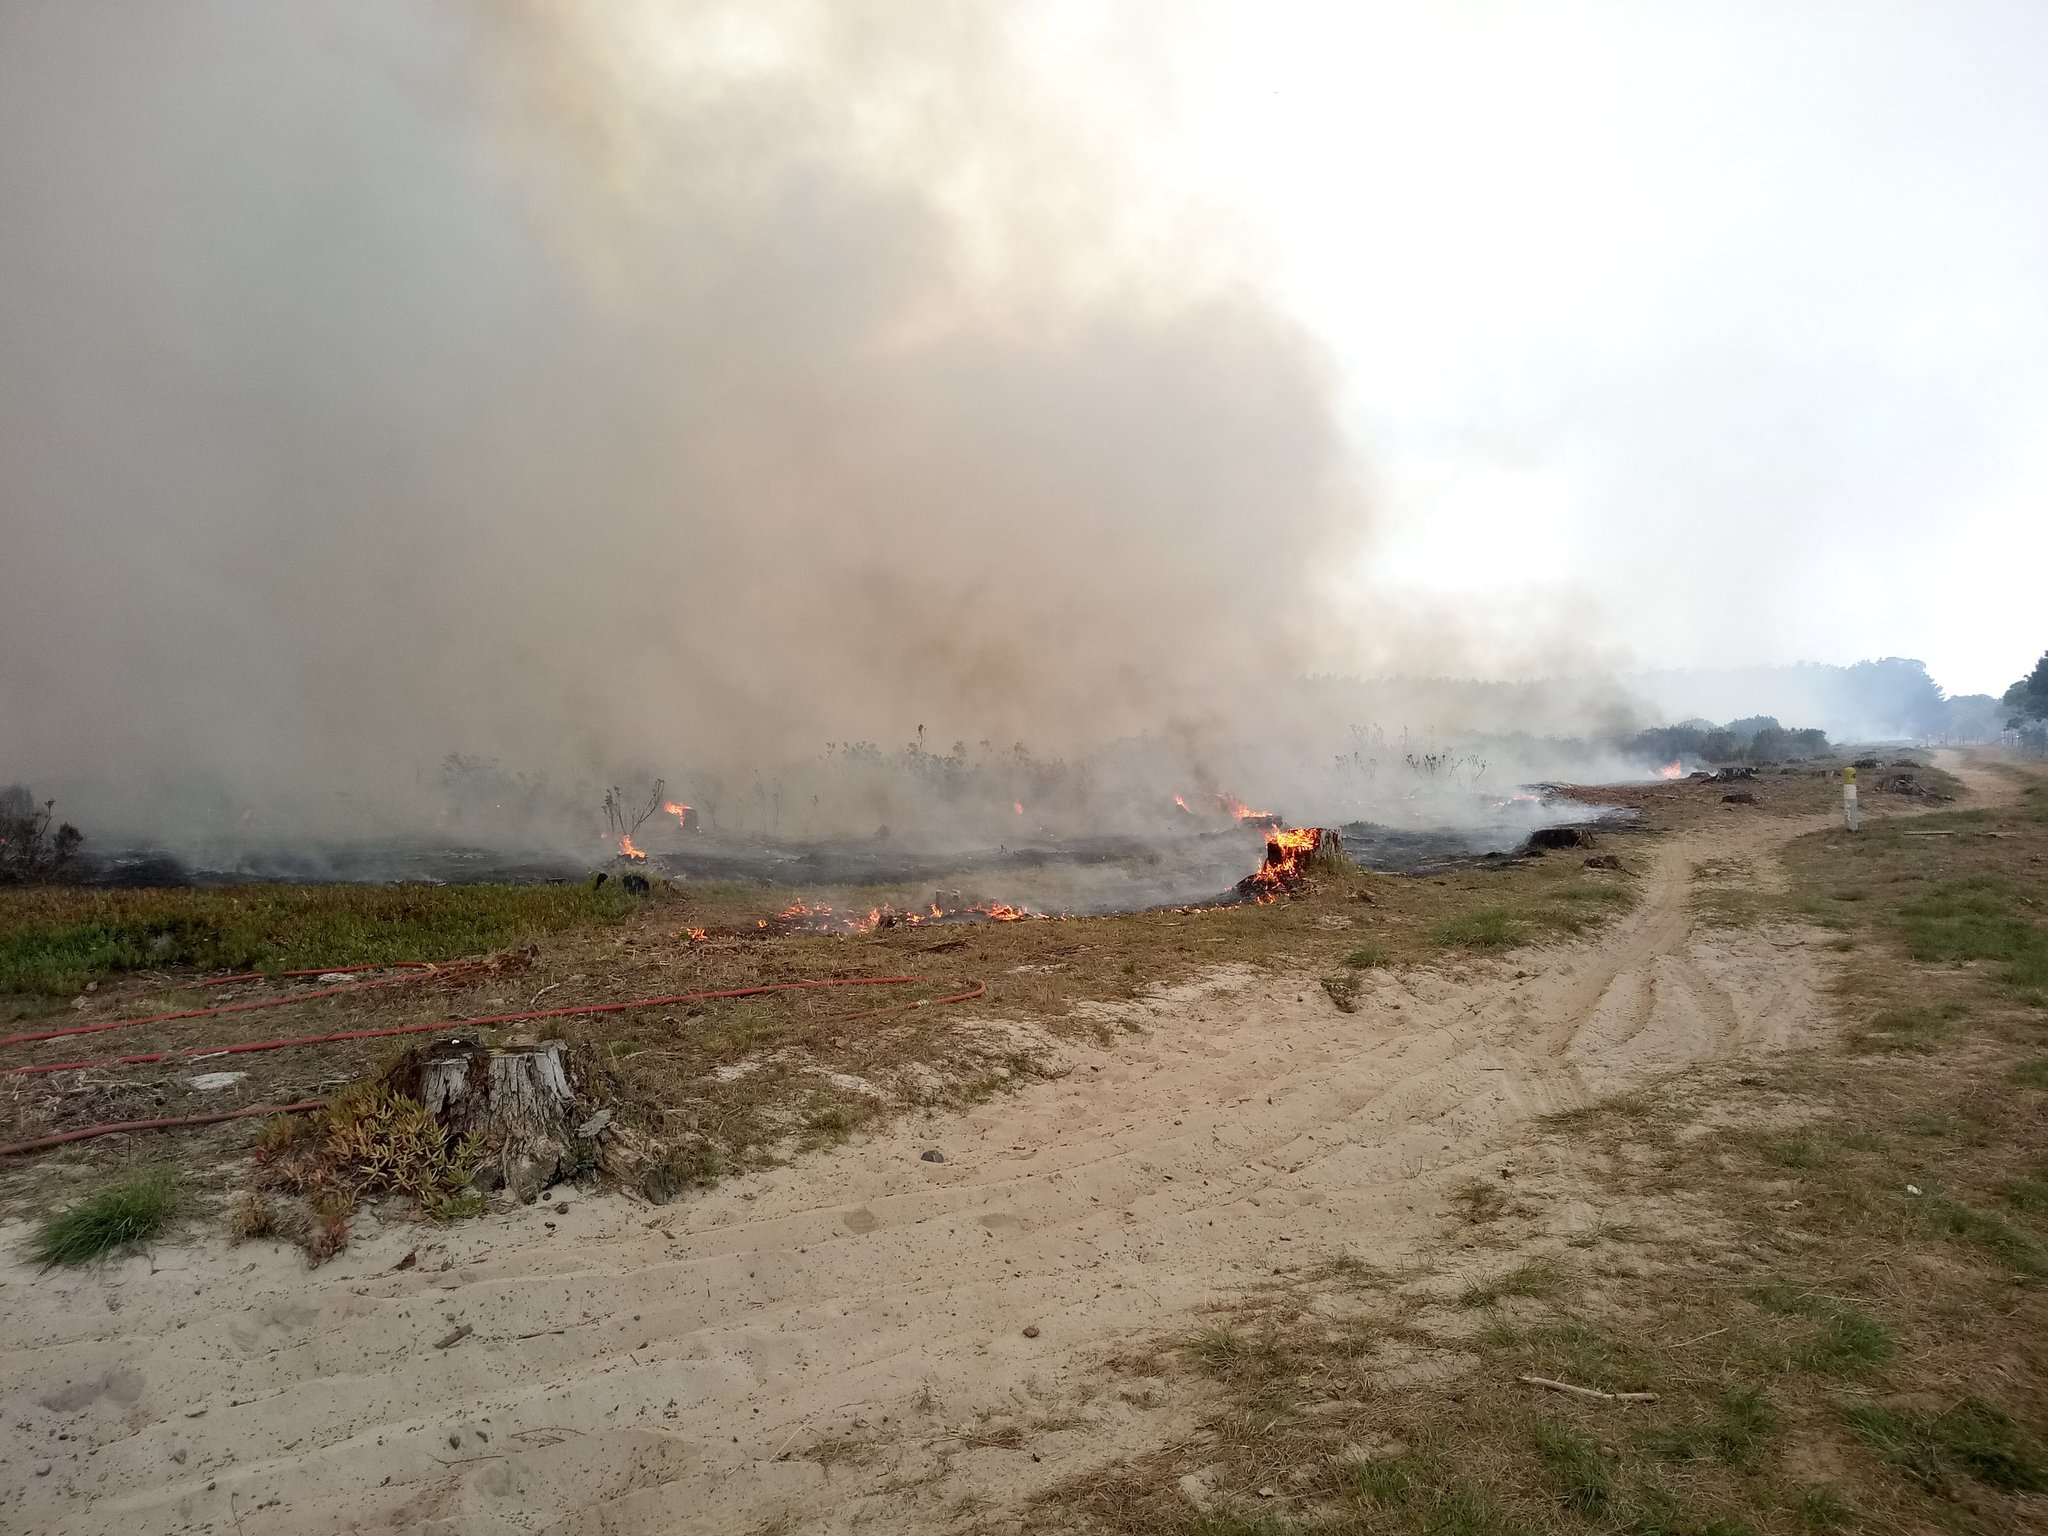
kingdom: Plantae
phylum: Tracheophyta
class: Magnoliopsida
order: Caryophyllales
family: Aizoaceae
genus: Carpobrotus
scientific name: Carpobrotus edulis
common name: Hottentot-fig
